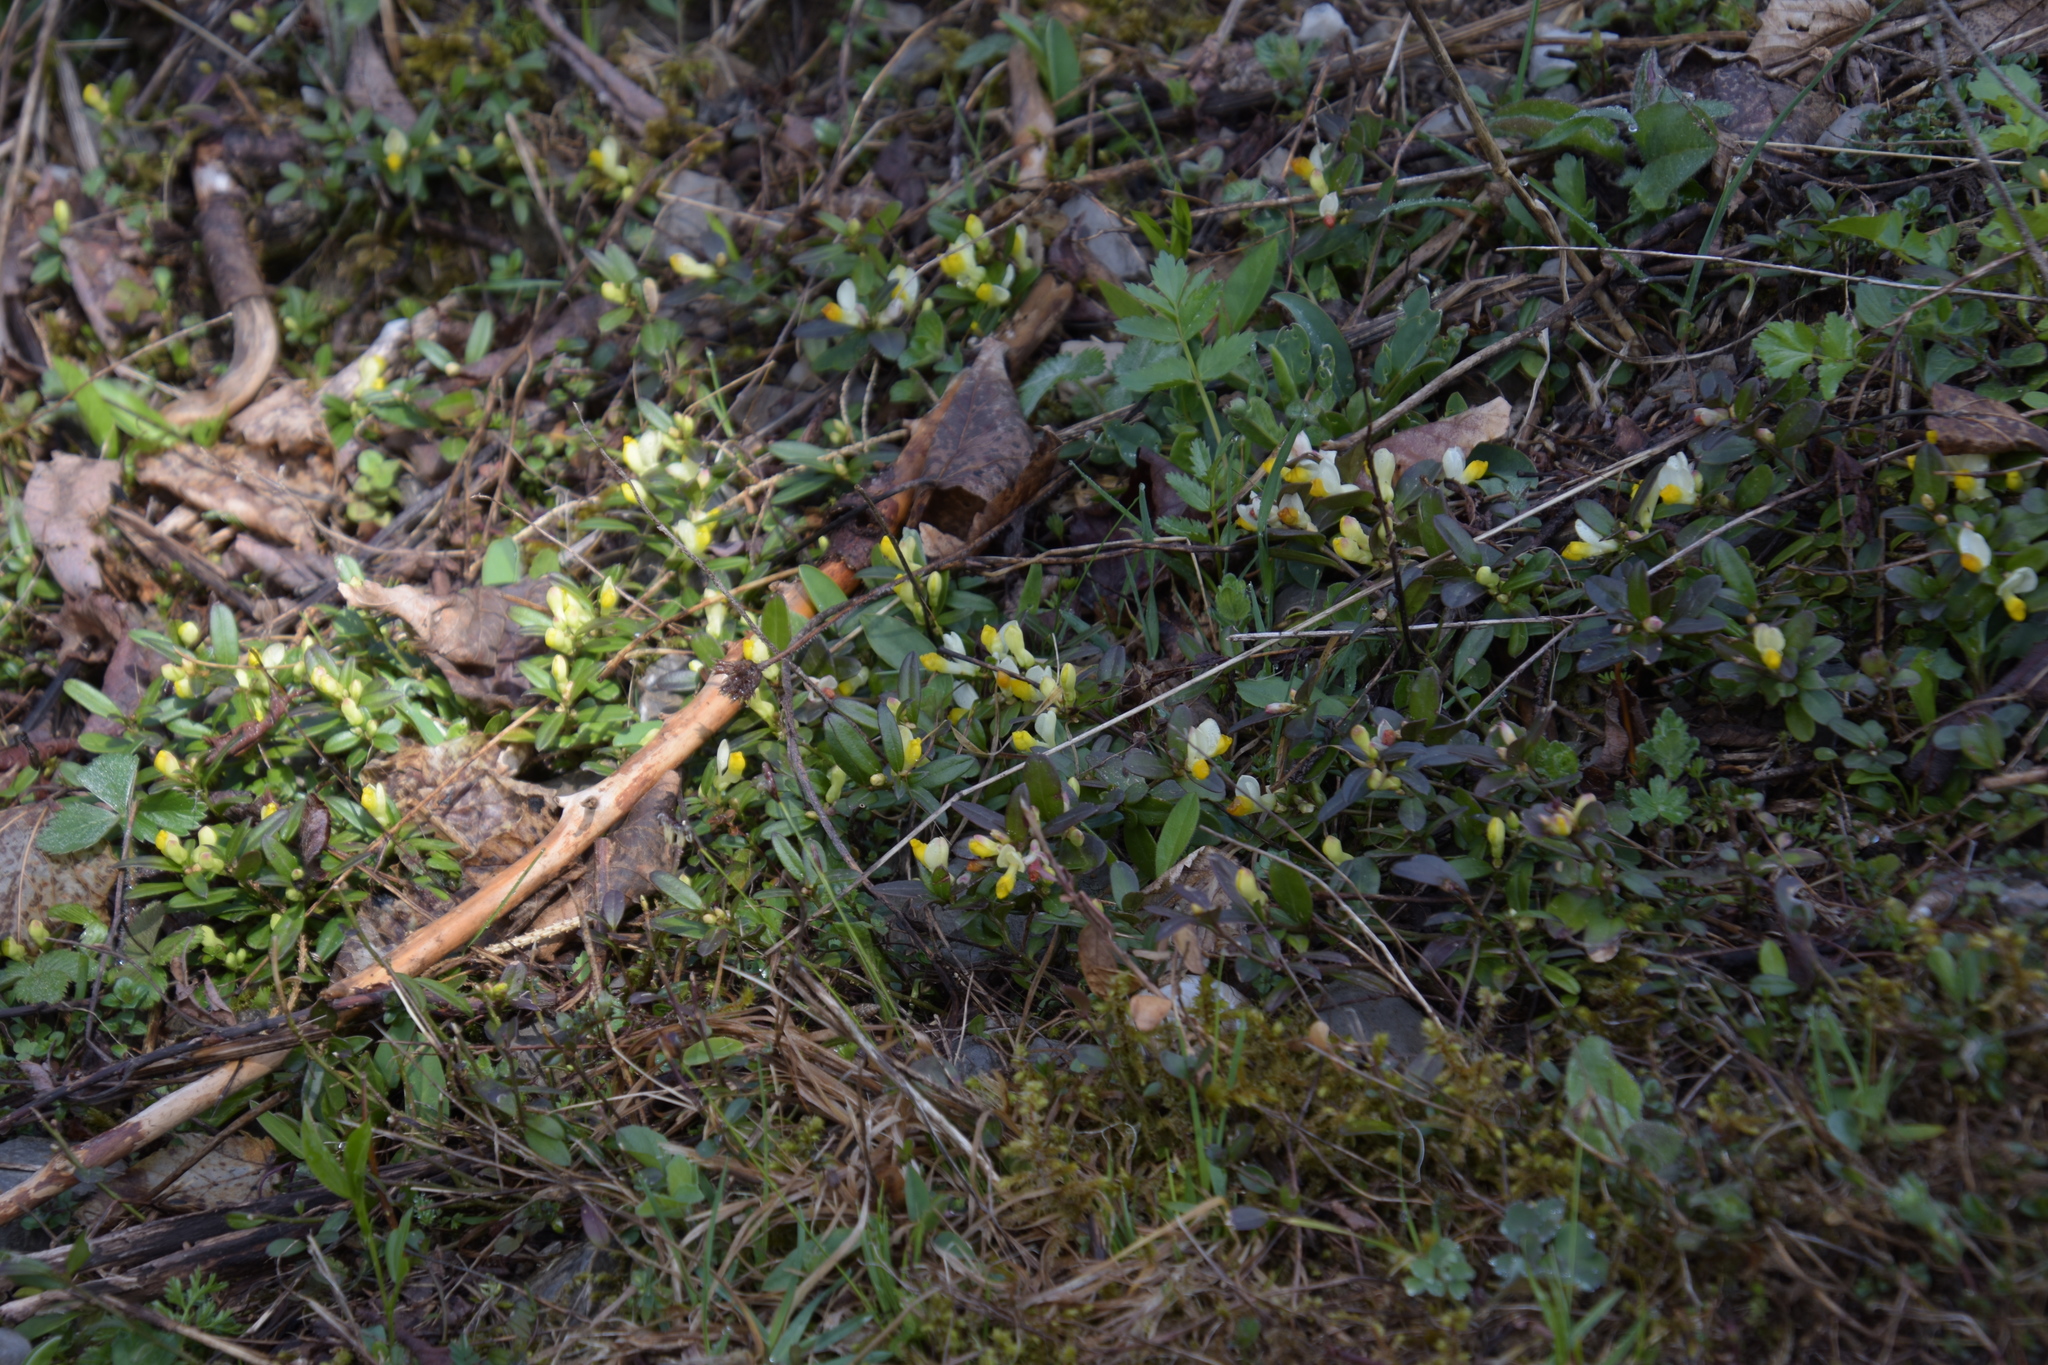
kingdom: Plantae
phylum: Tracheophyta
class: Magnoliopsida
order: Fabales
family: Polygalaceae
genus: Polygaloides
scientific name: Polygaloides chamaebuxus
